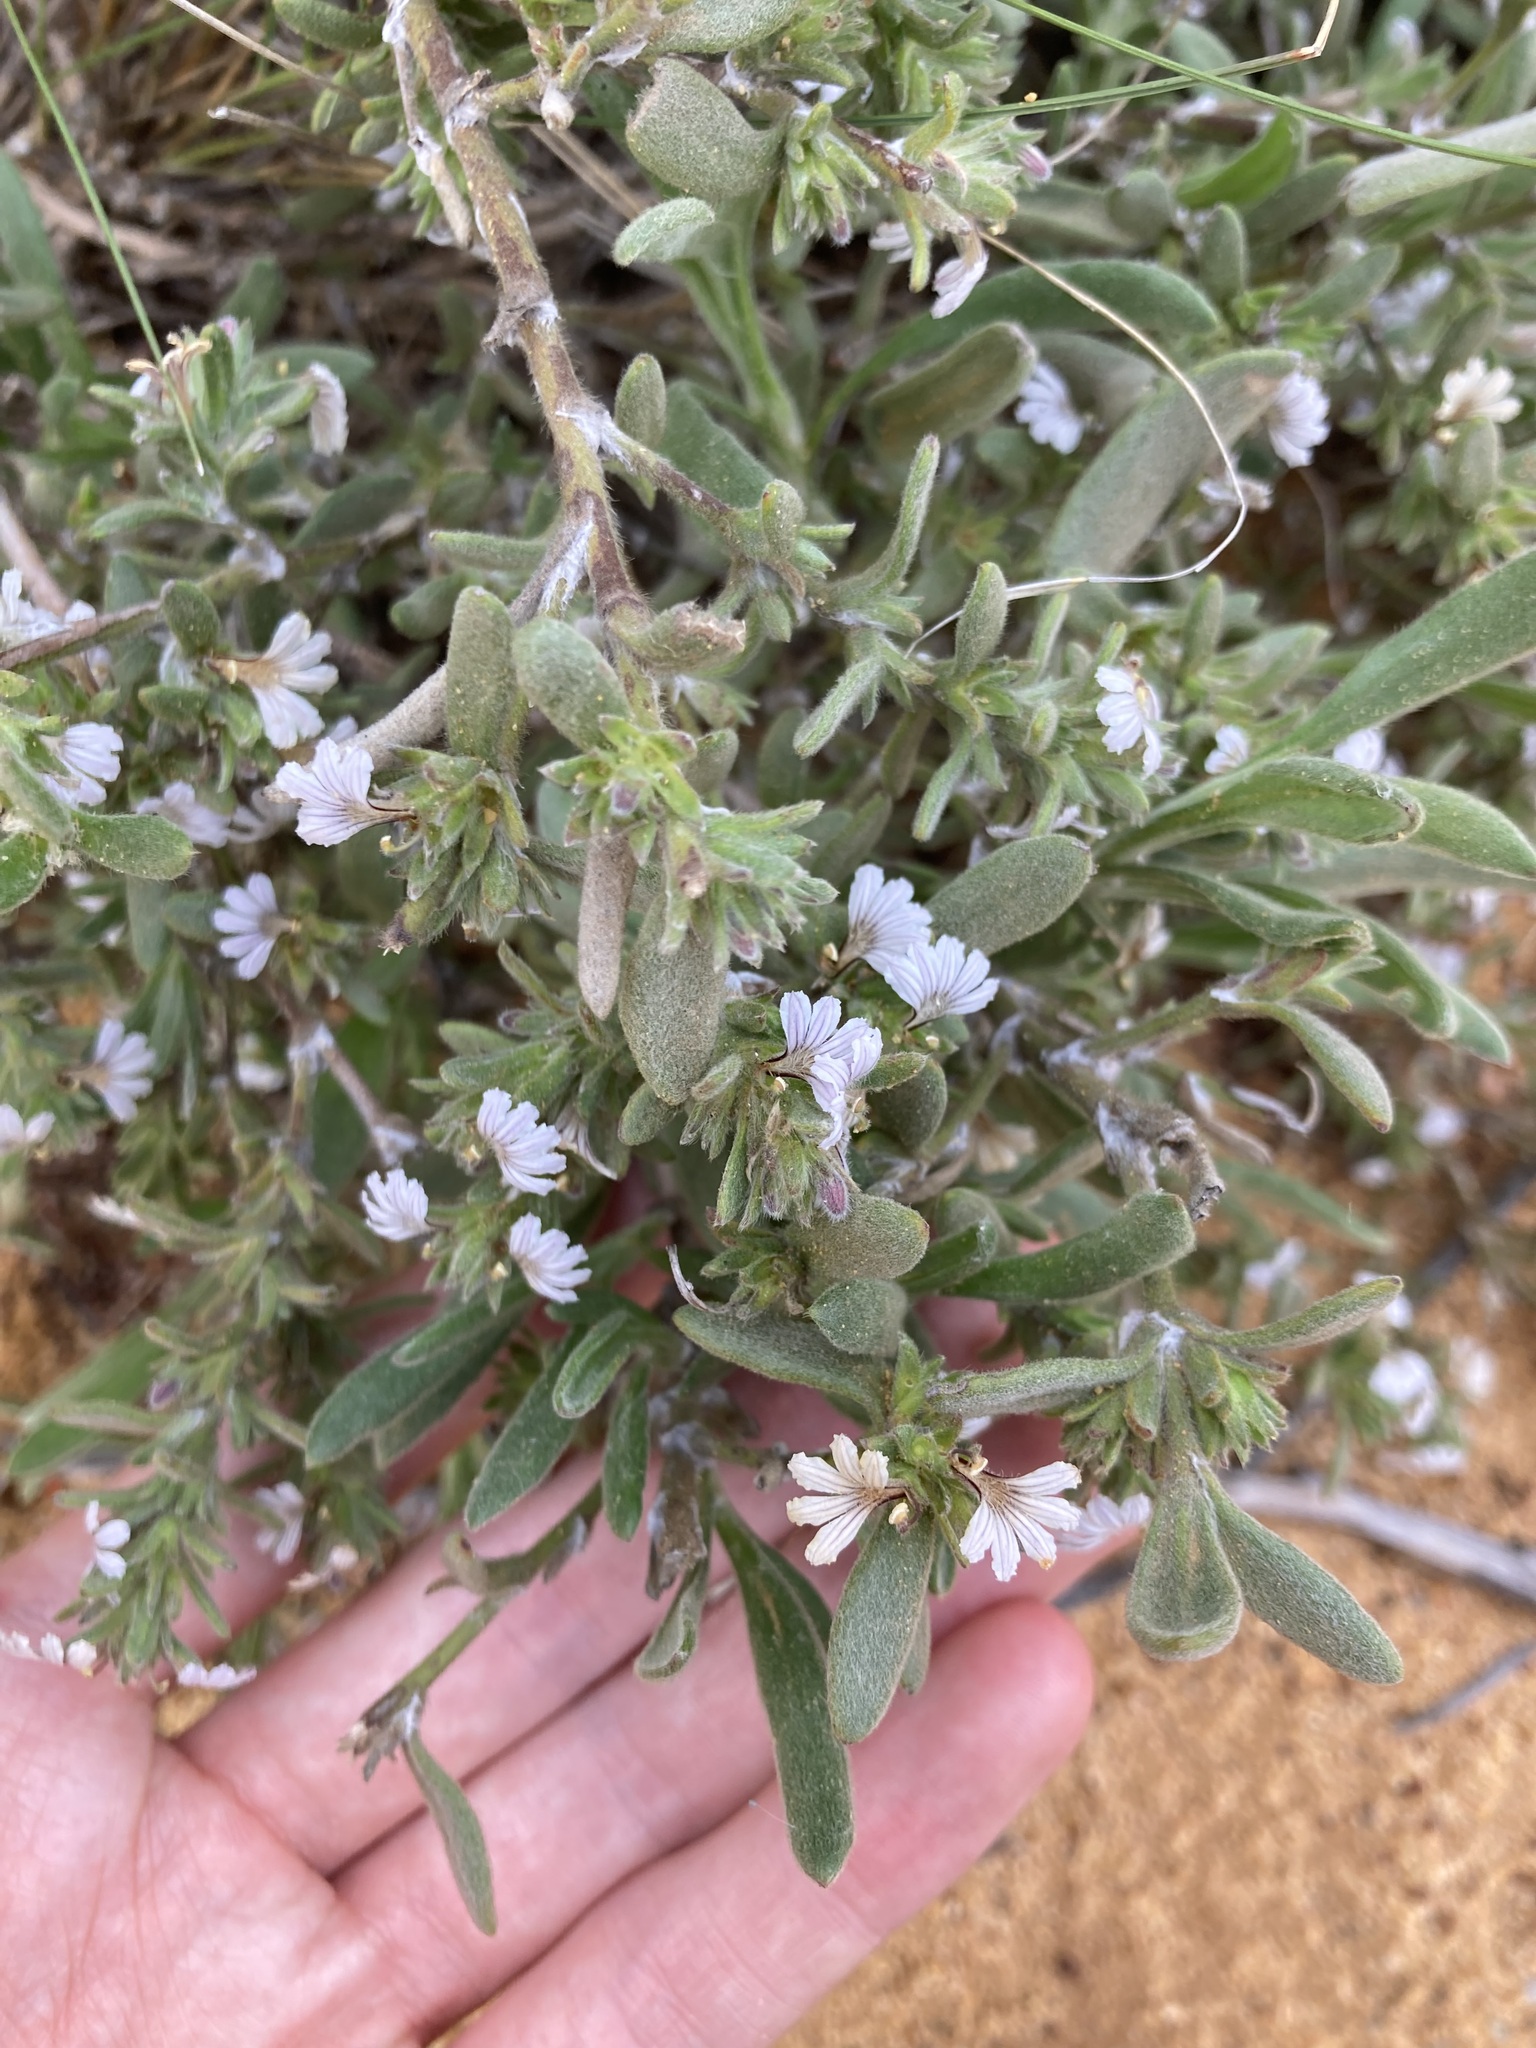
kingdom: Plantae
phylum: Tracheophyta
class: Magnoliopsida
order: Asterales
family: Goodeniaceae
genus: Scaevola
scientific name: Scaevola canescens
